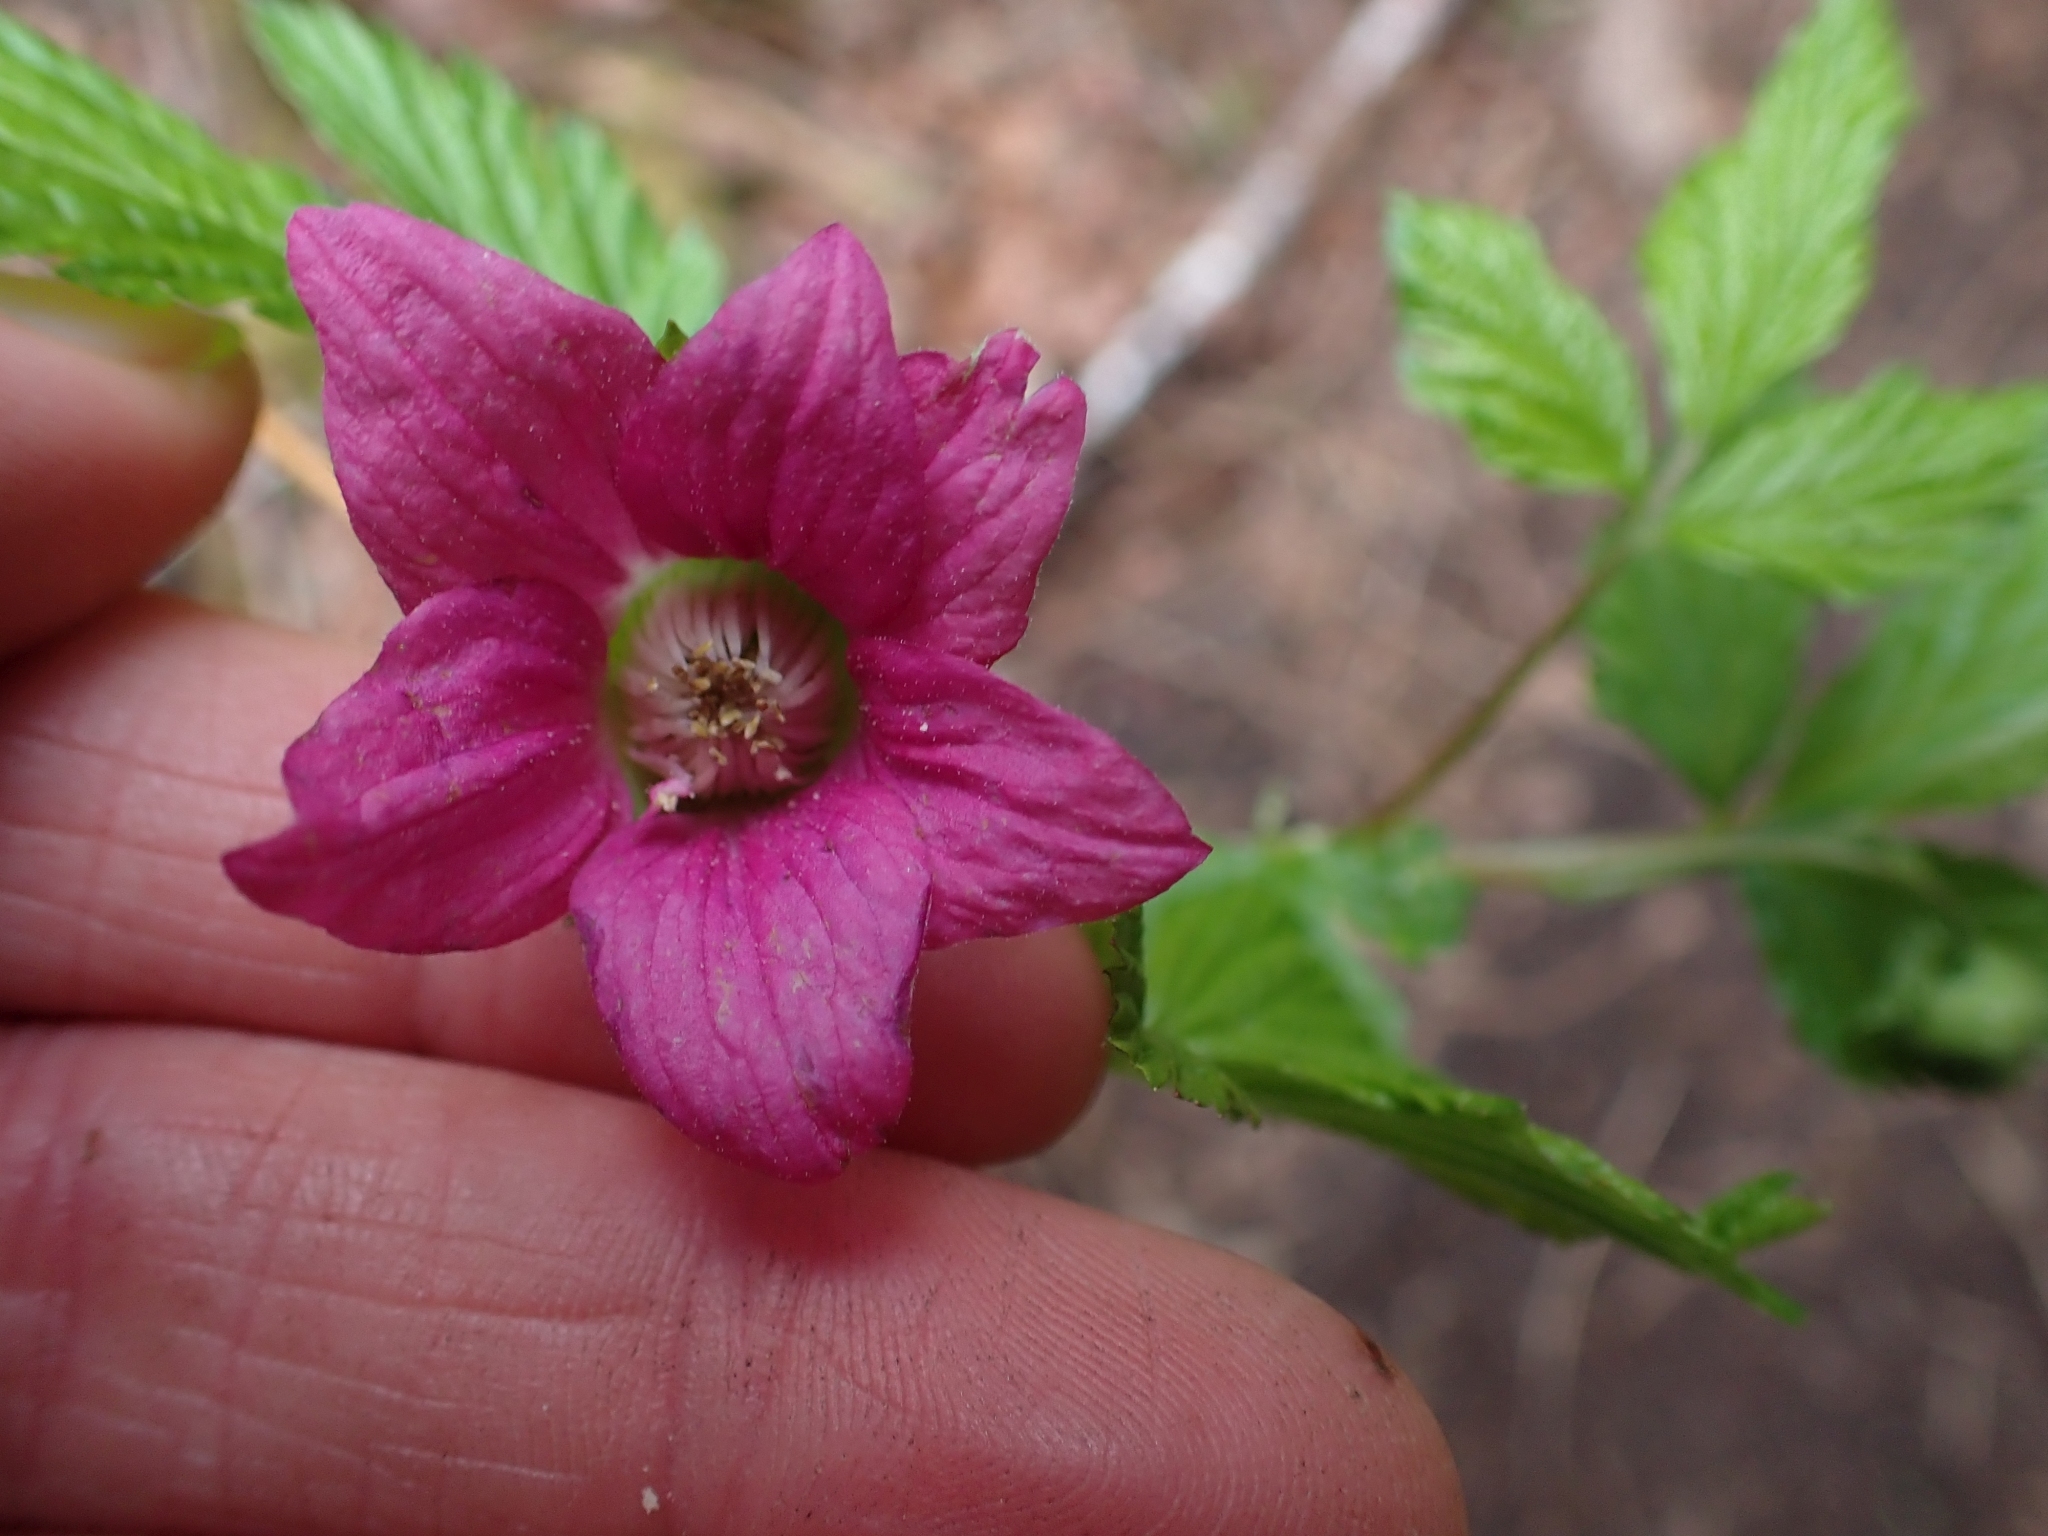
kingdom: Plantae
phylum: Tracheophyta
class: Magnoliopsida
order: Rosales
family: Rosaceae
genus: Rubus
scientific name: Rubus spectabilis
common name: Salmonberry
